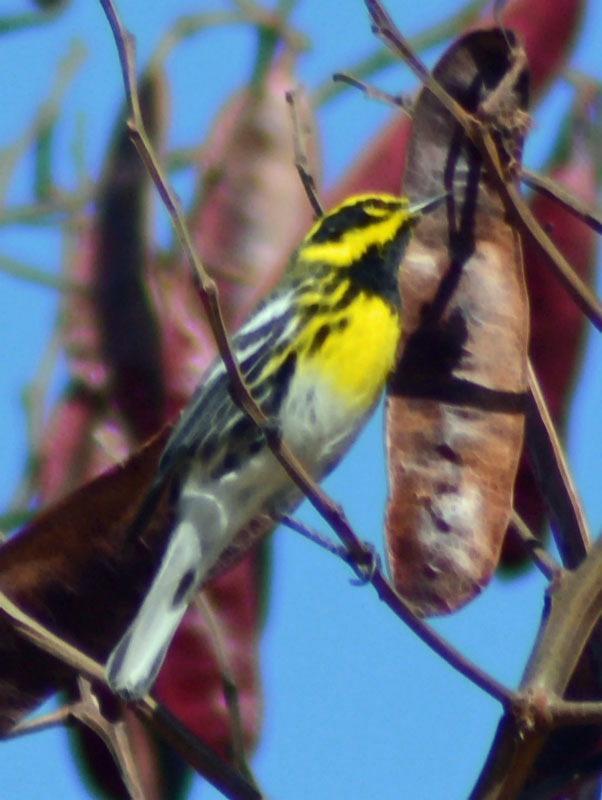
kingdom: Animalia
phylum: Chordata
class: Aves
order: Passeriformes
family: Parulidae
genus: Setophaga
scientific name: Setophaga townsendi
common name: Townsend's warbler
